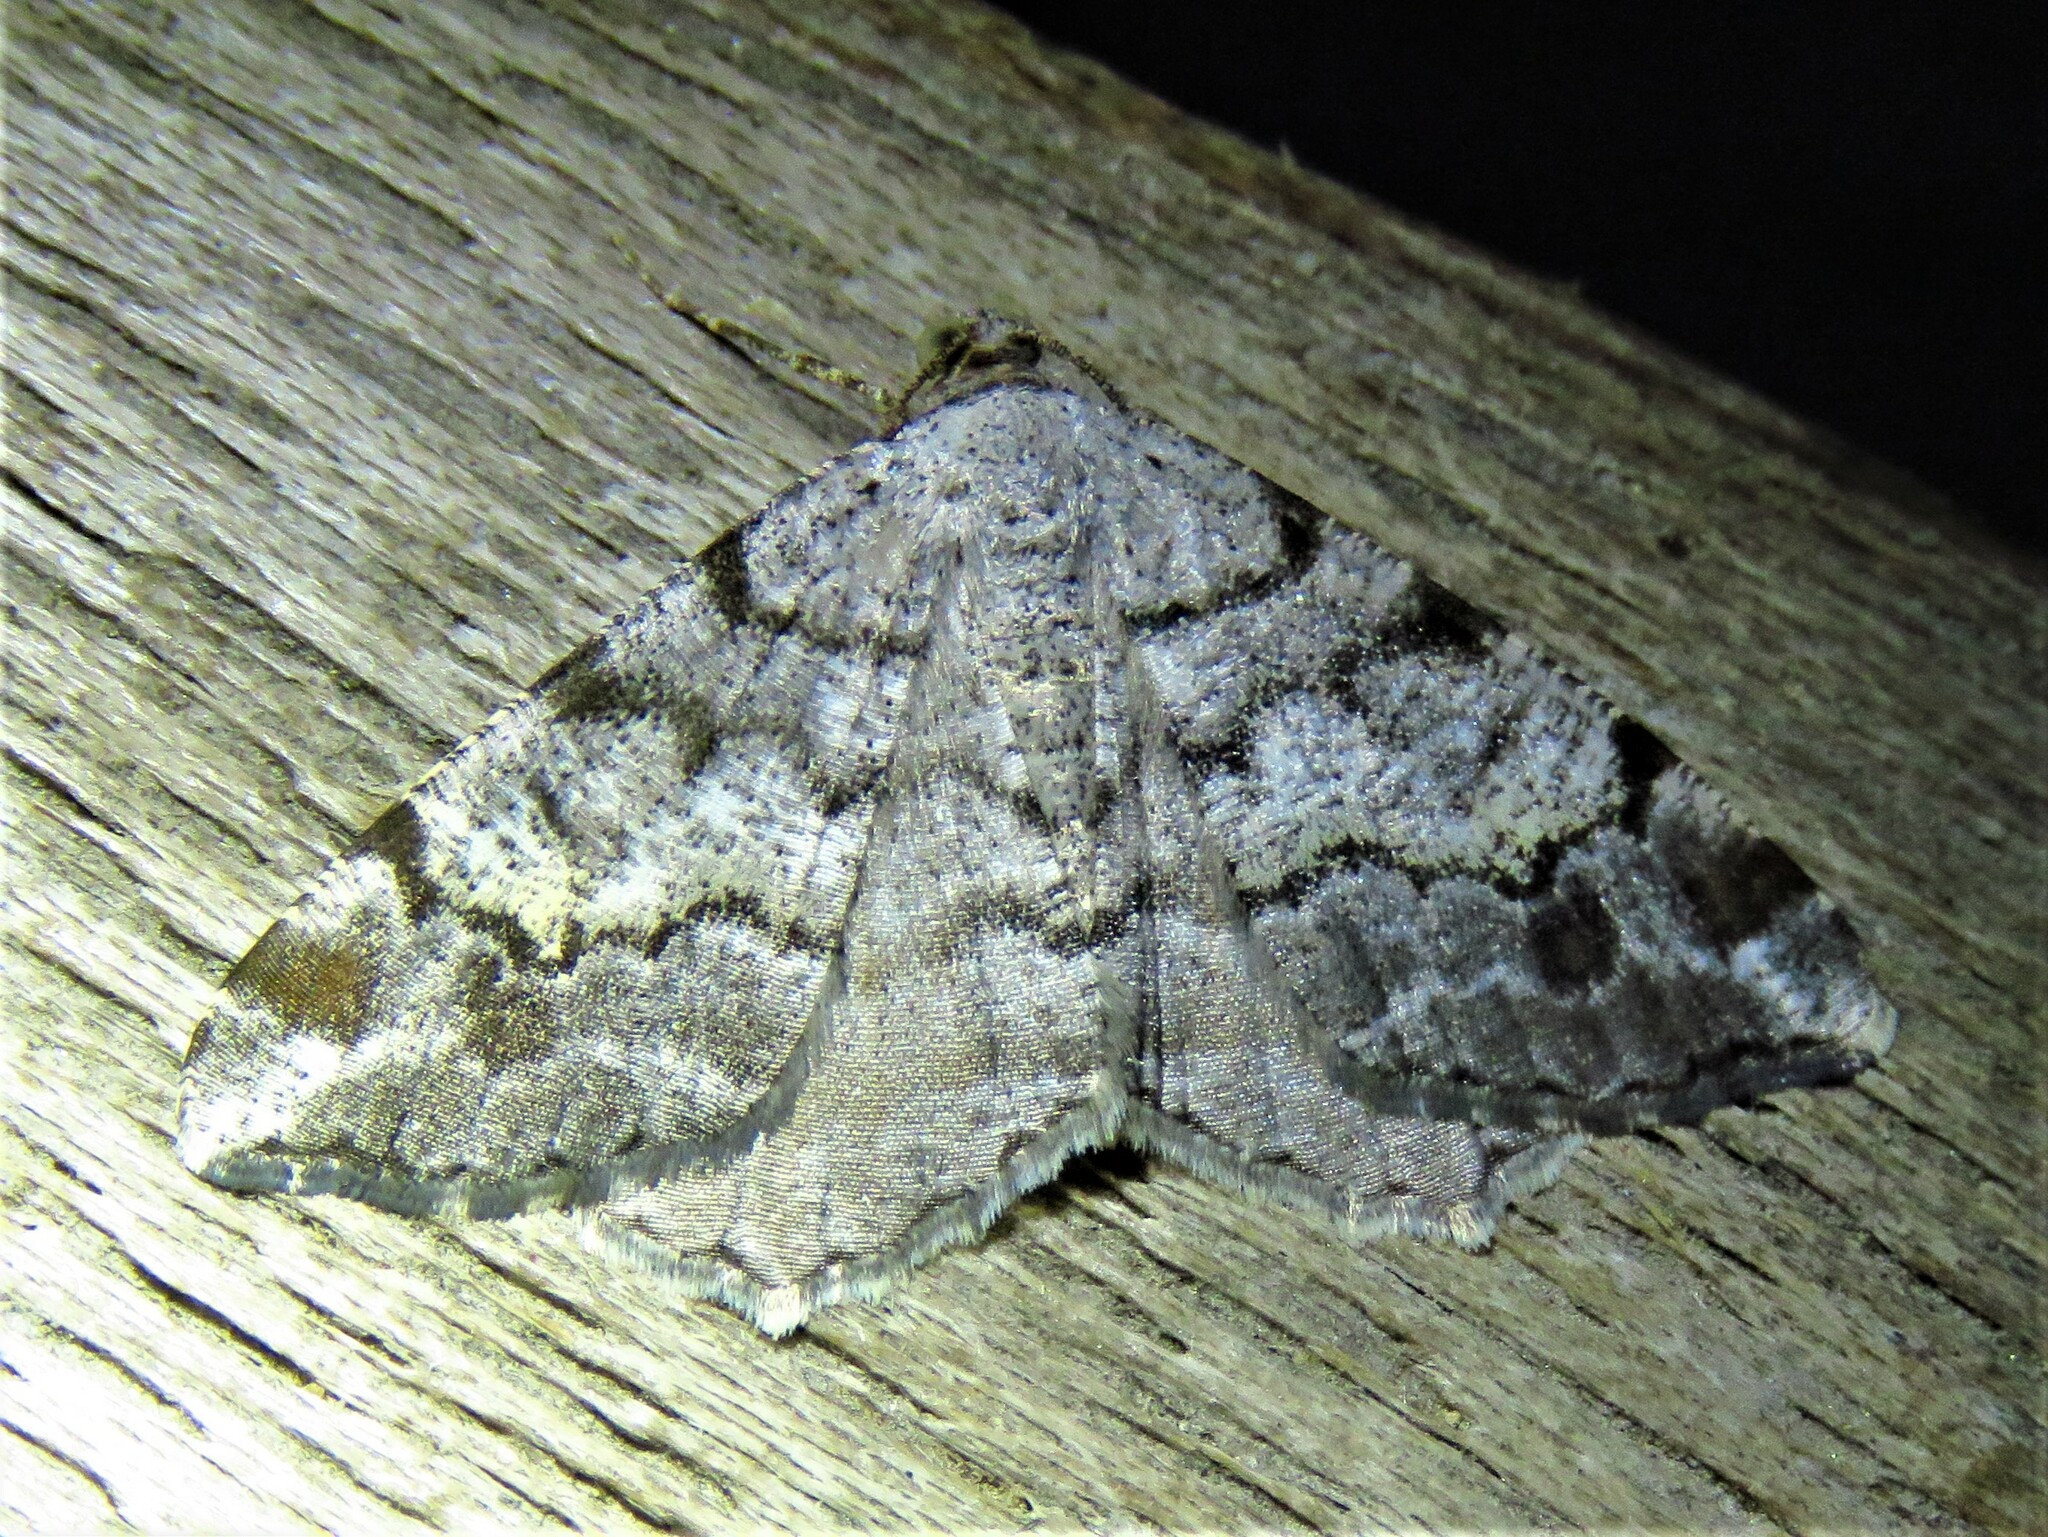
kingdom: Animalia
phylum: Arthropoda
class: Insecta
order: Lepidoptera
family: Geometridae
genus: Macaria
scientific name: Macaria granitata
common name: Granite moth
